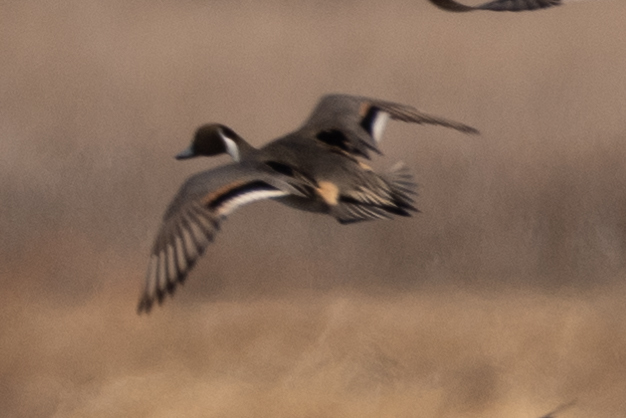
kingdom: Animalia
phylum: Chordata
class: Aves
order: Anseriformes
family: Anatidae
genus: Anas
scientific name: Anas acuta
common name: Northern pintail
